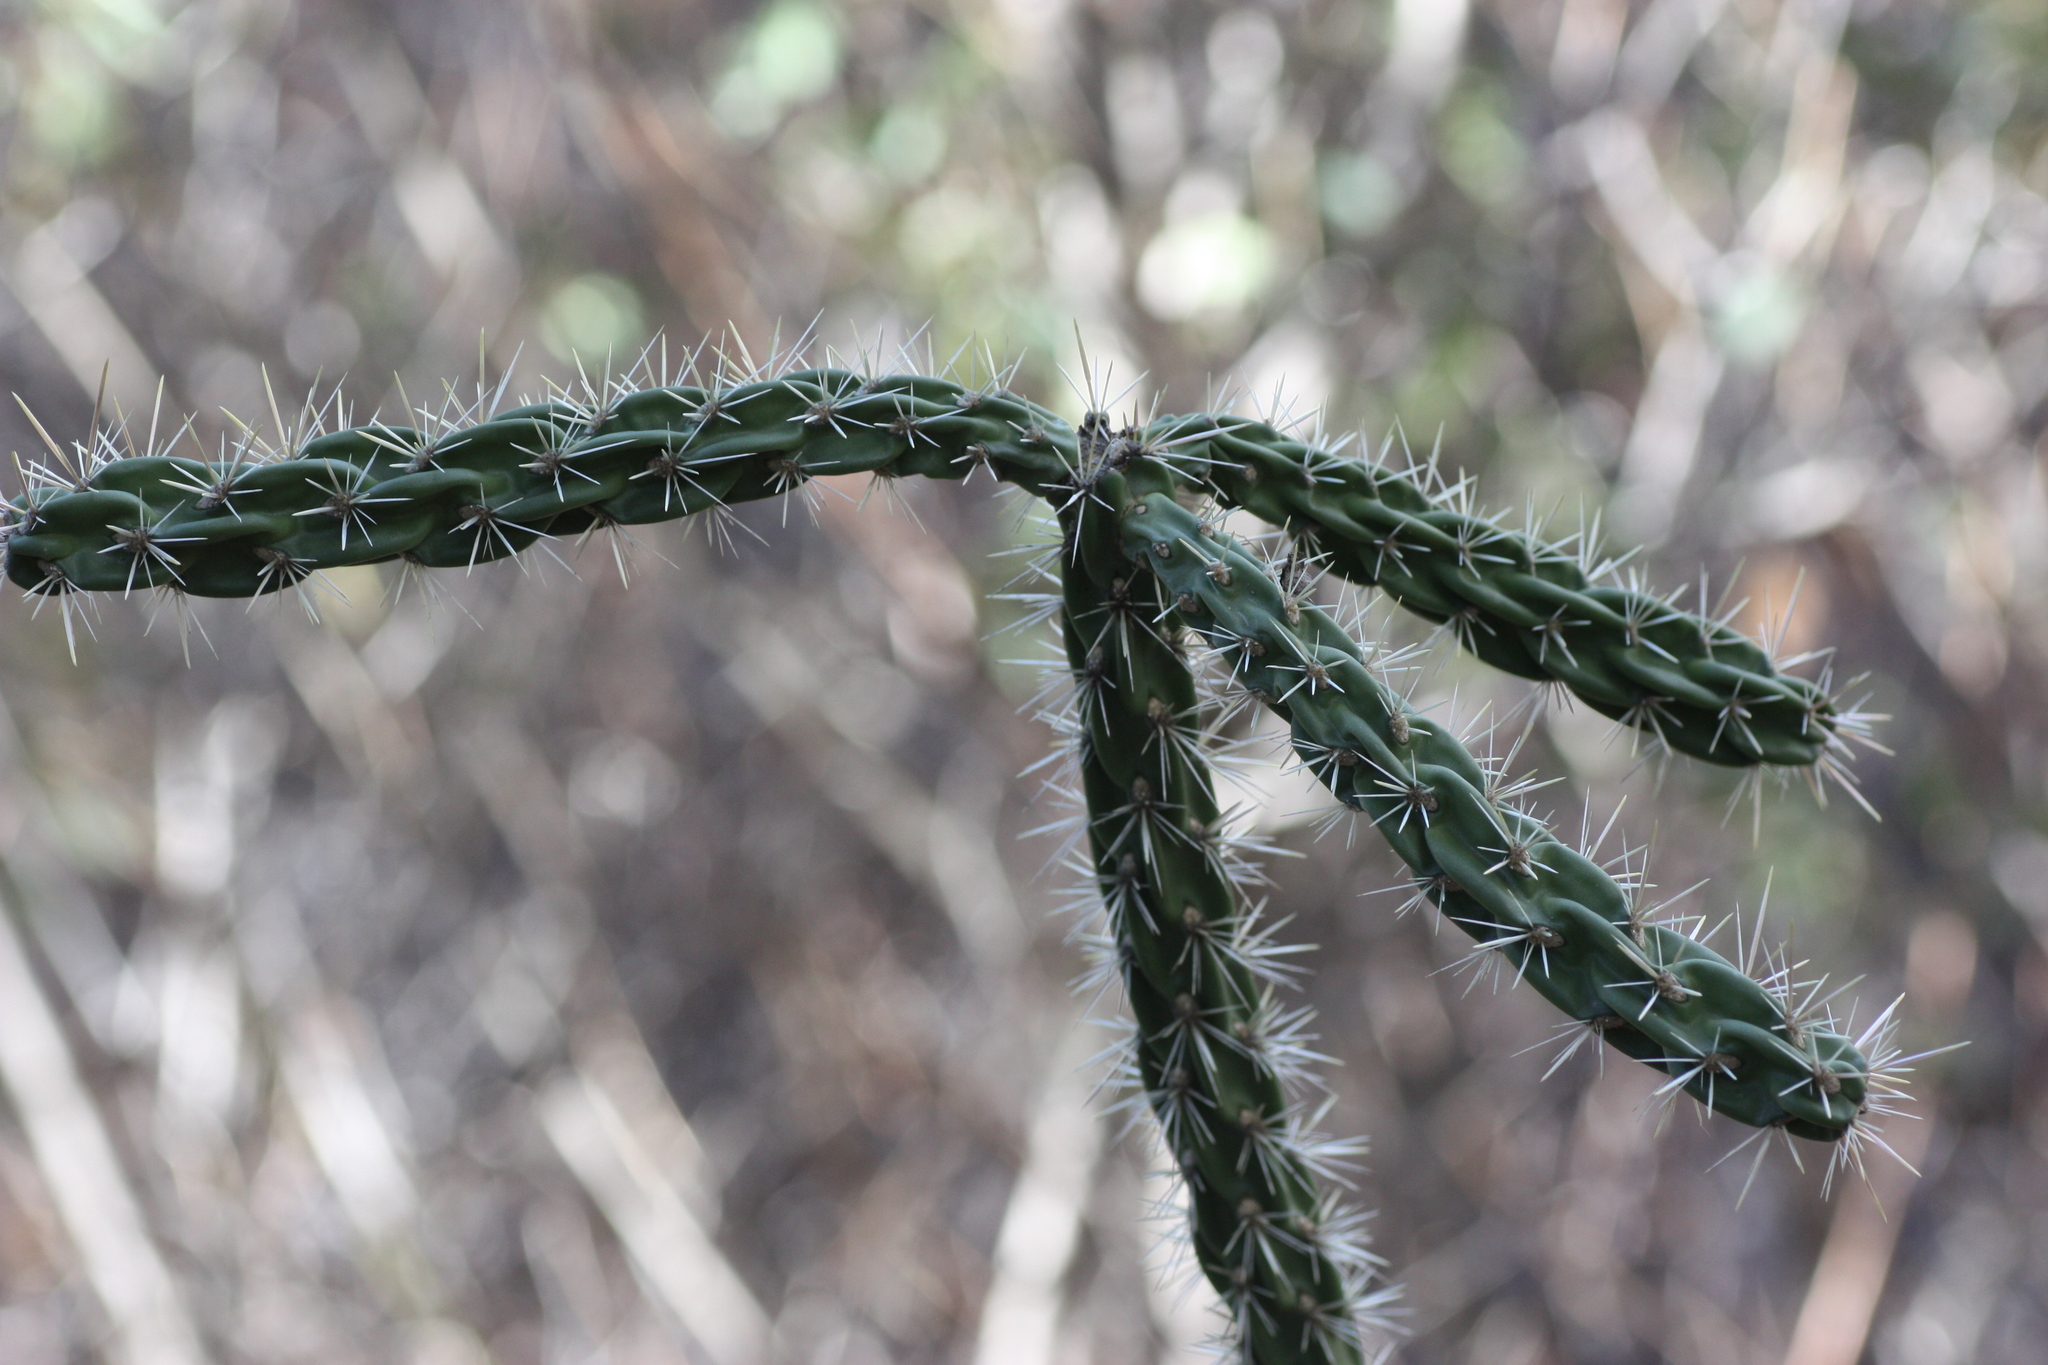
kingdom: Plantae
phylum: Tracheophyta
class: Magnoliopsida
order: Caryophyllales
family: Cactaceae
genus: Cylindropuntia
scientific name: Cylindropuntia imbricata
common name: Candelabrum cactus
